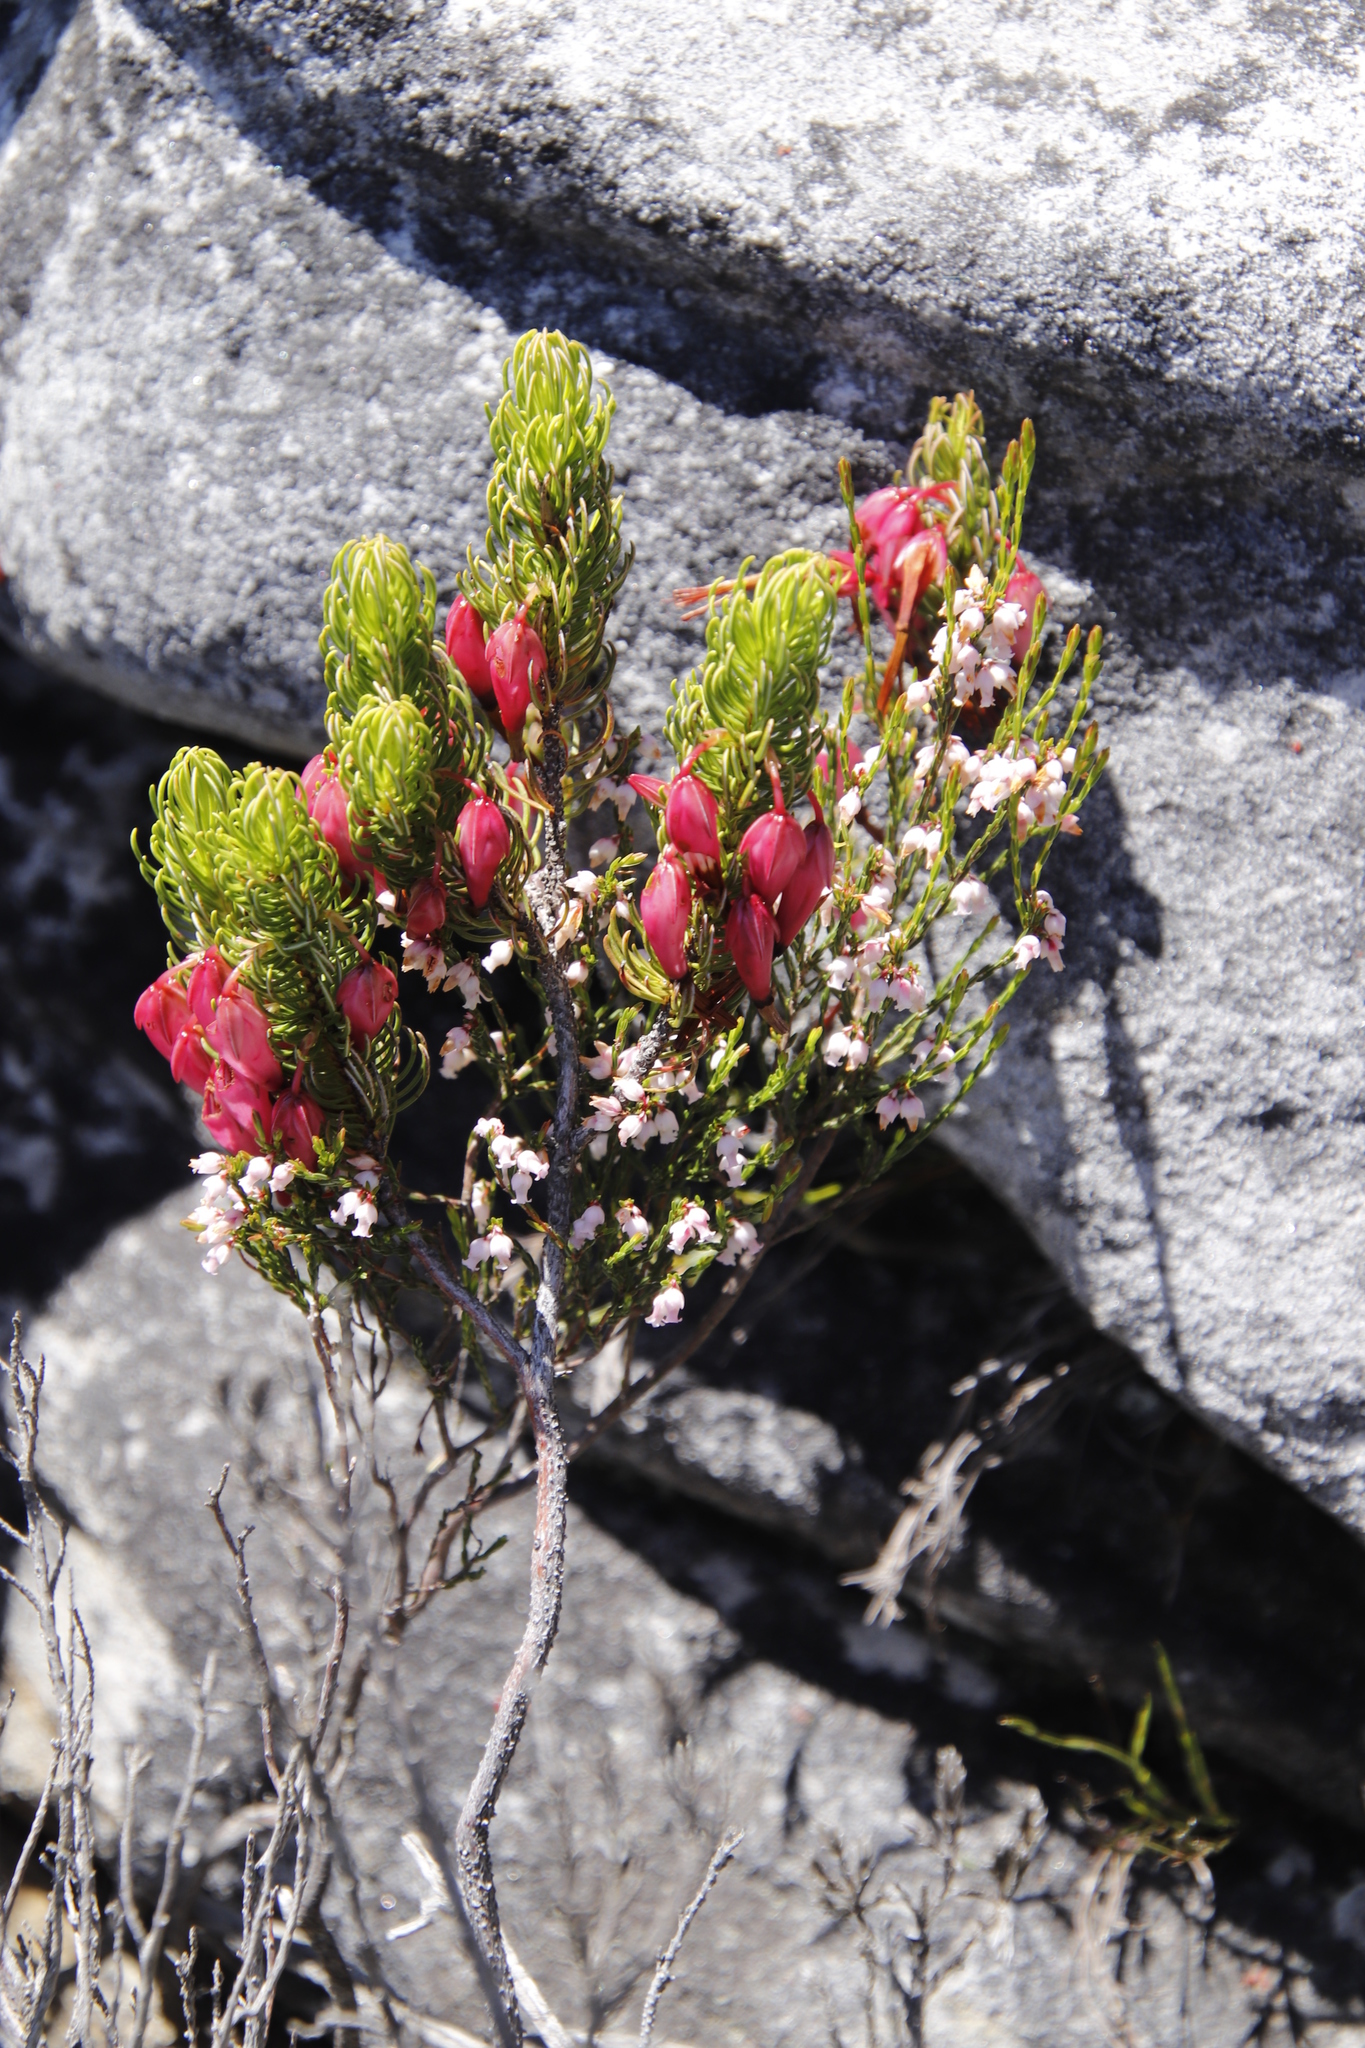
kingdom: Plantae
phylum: Tracheophyta
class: Magnoliopsida
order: Ericales
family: Ericaceae
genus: Erica
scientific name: Erica plukenetii
